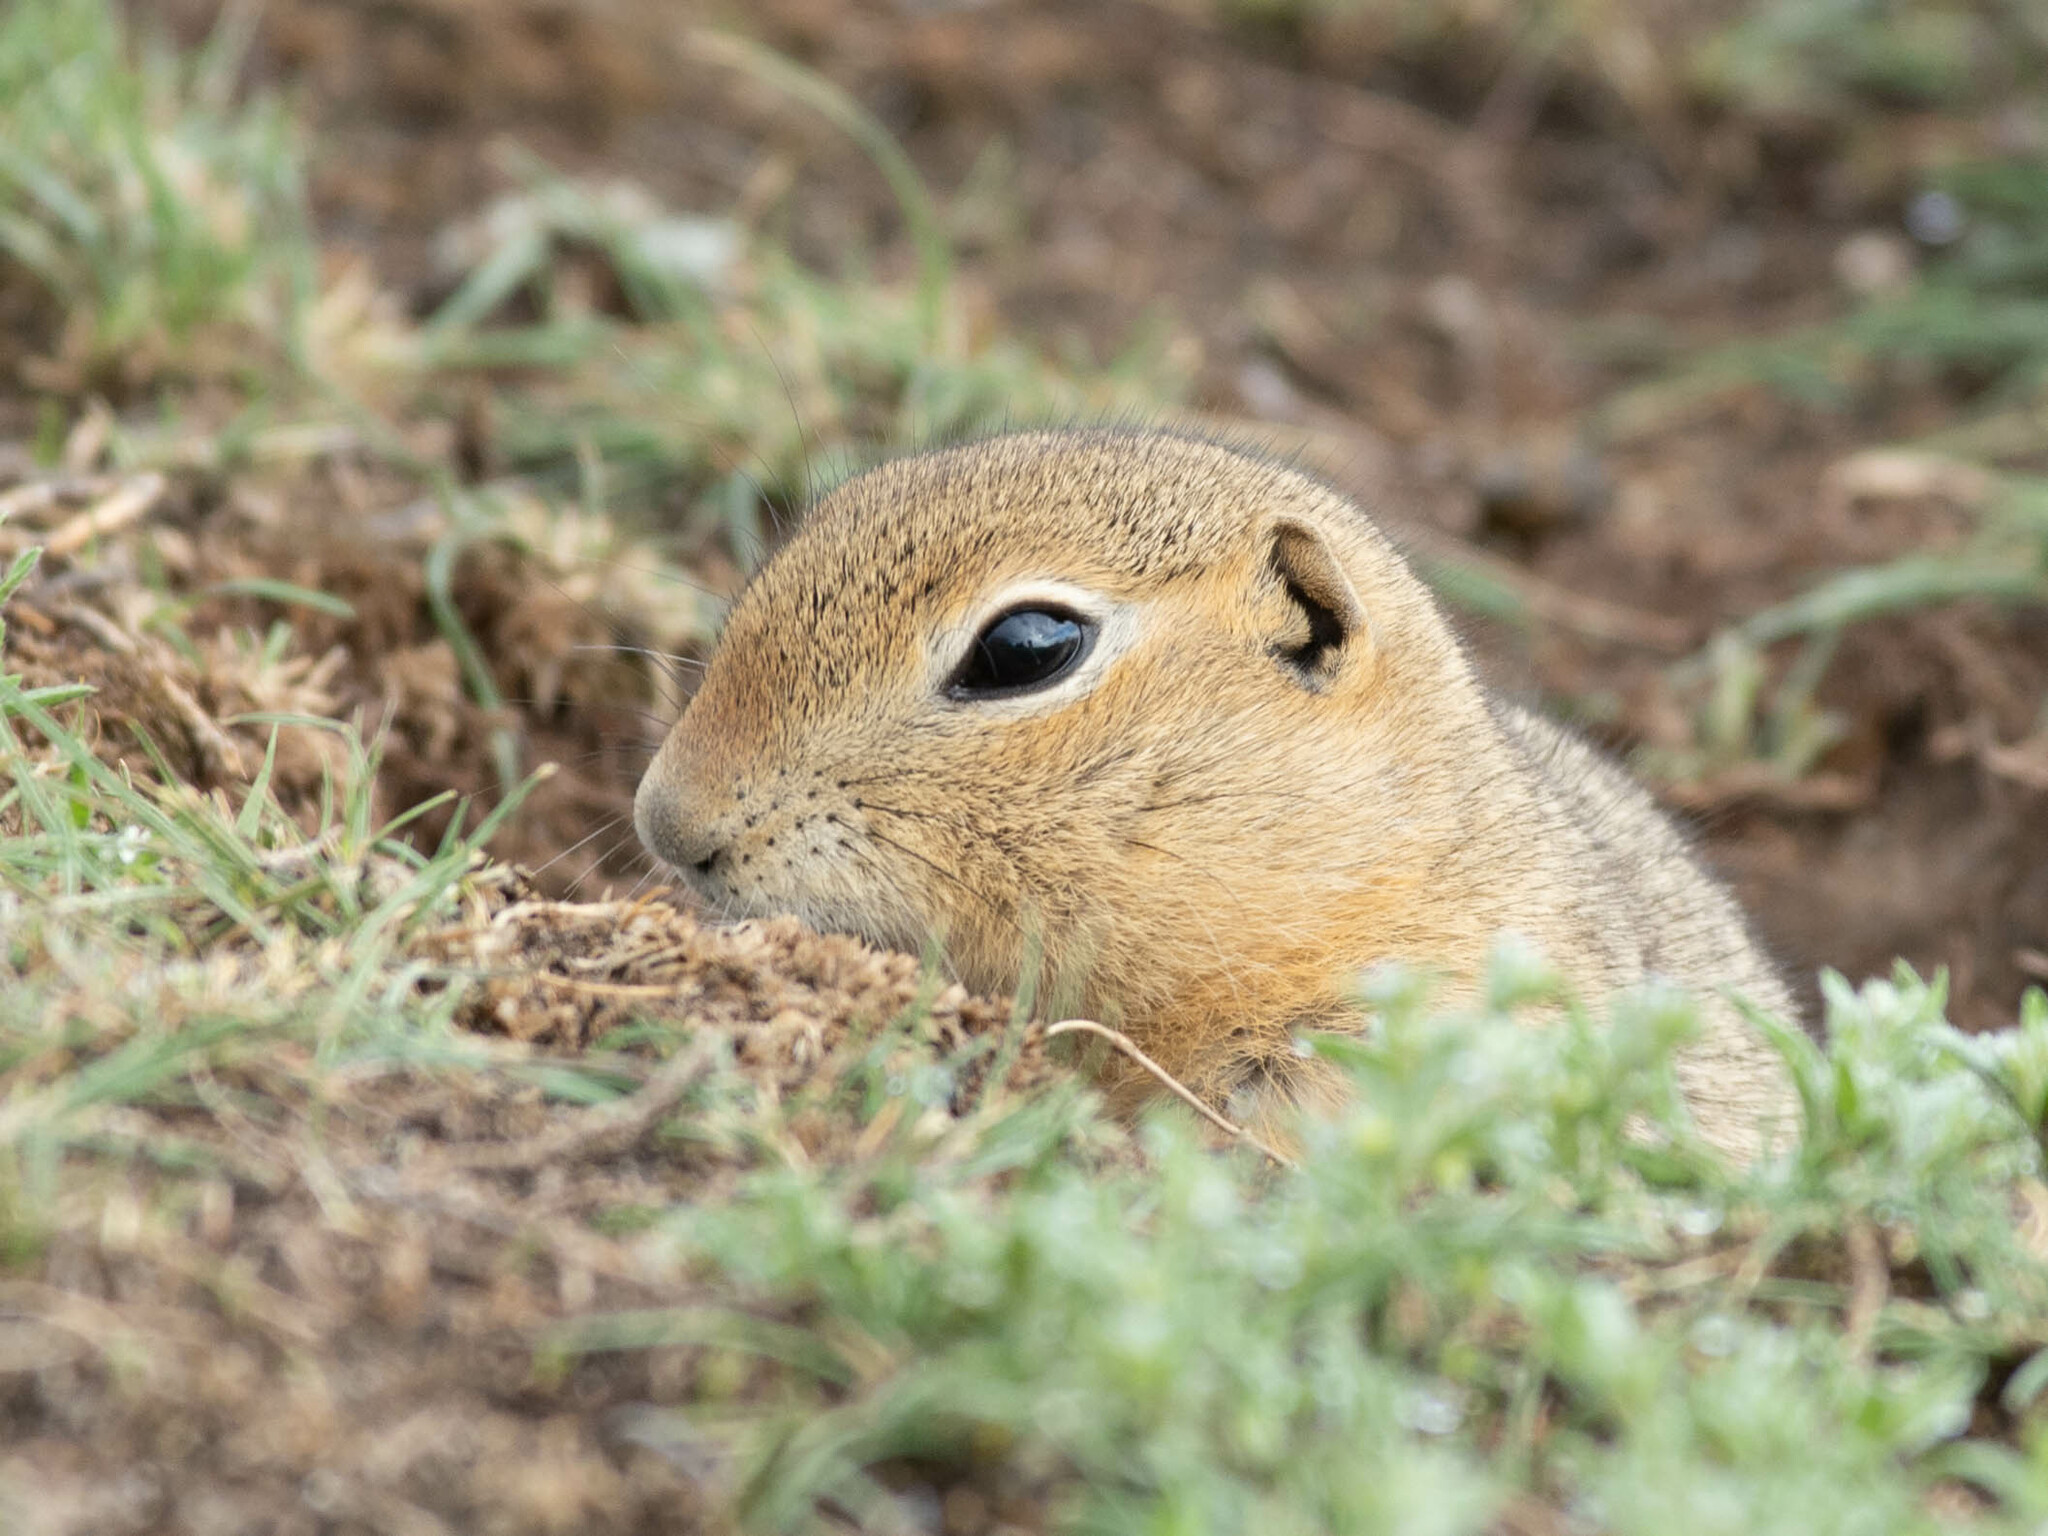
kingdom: Animalia
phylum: Chordata
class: Mammalia
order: Rodentia
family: Sciuridae
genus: Urocitellus
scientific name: Urocitellus richardsonii
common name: Richardson's ground squirrel
